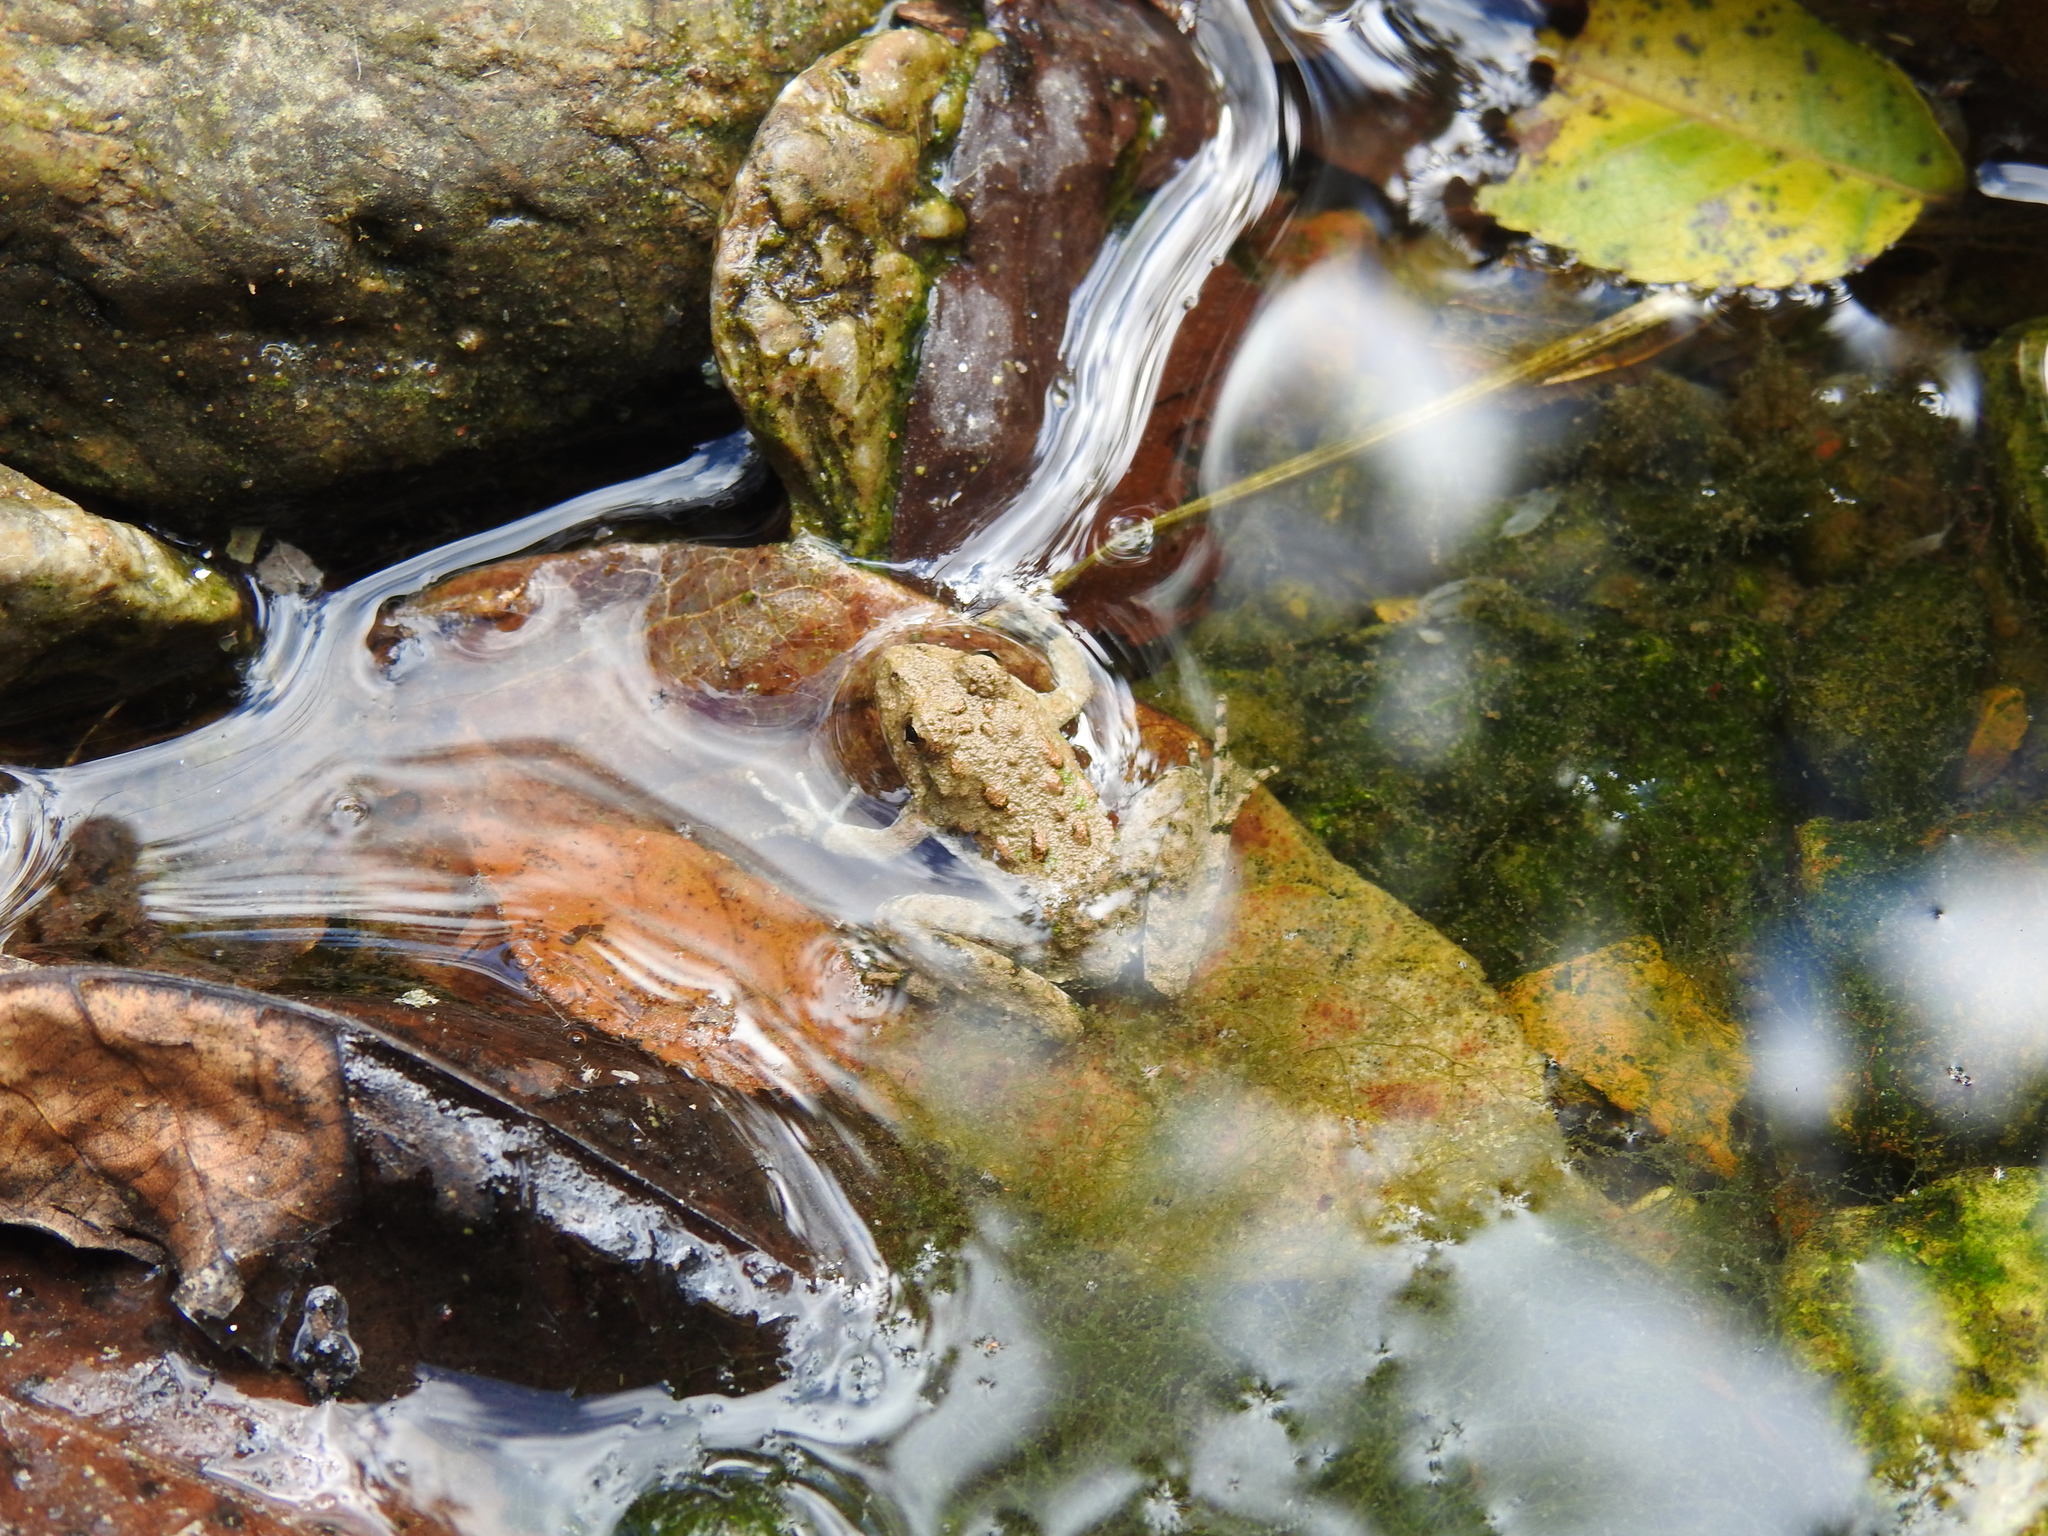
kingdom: Animalia
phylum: Chordata
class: Amphibia
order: Anura
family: Hylidae
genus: Acris
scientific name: Acris blanchardi
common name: Blanchard's cricket frog
